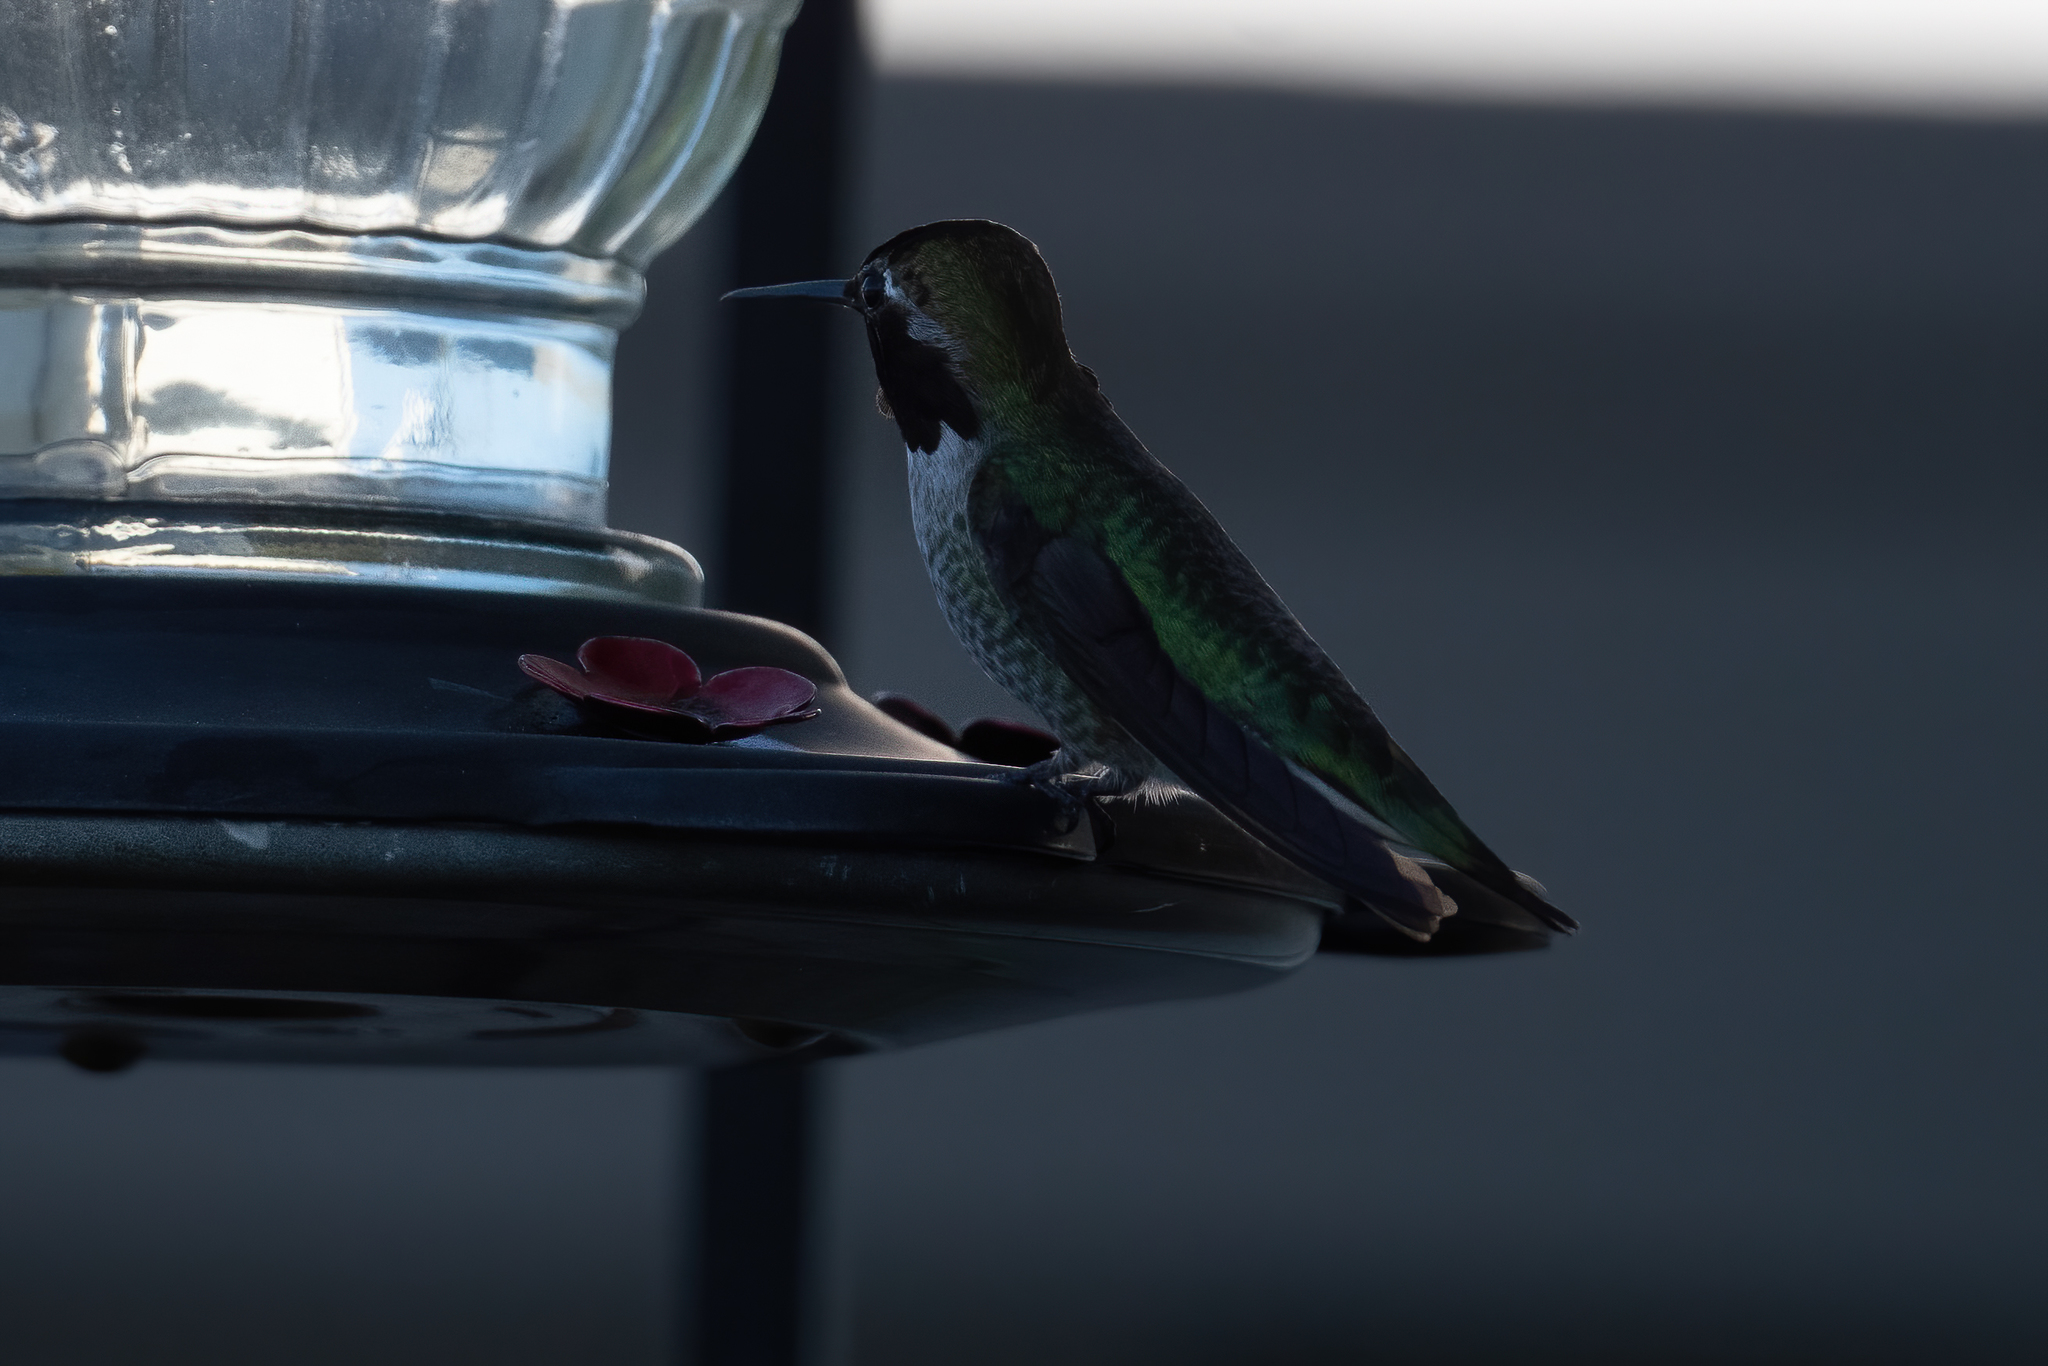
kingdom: Animalia
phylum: Chordata
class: Aves
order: Apodiformes
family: Trochilidae
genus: Calypte
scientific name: Calypte anna
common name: Anna's hummingbird
